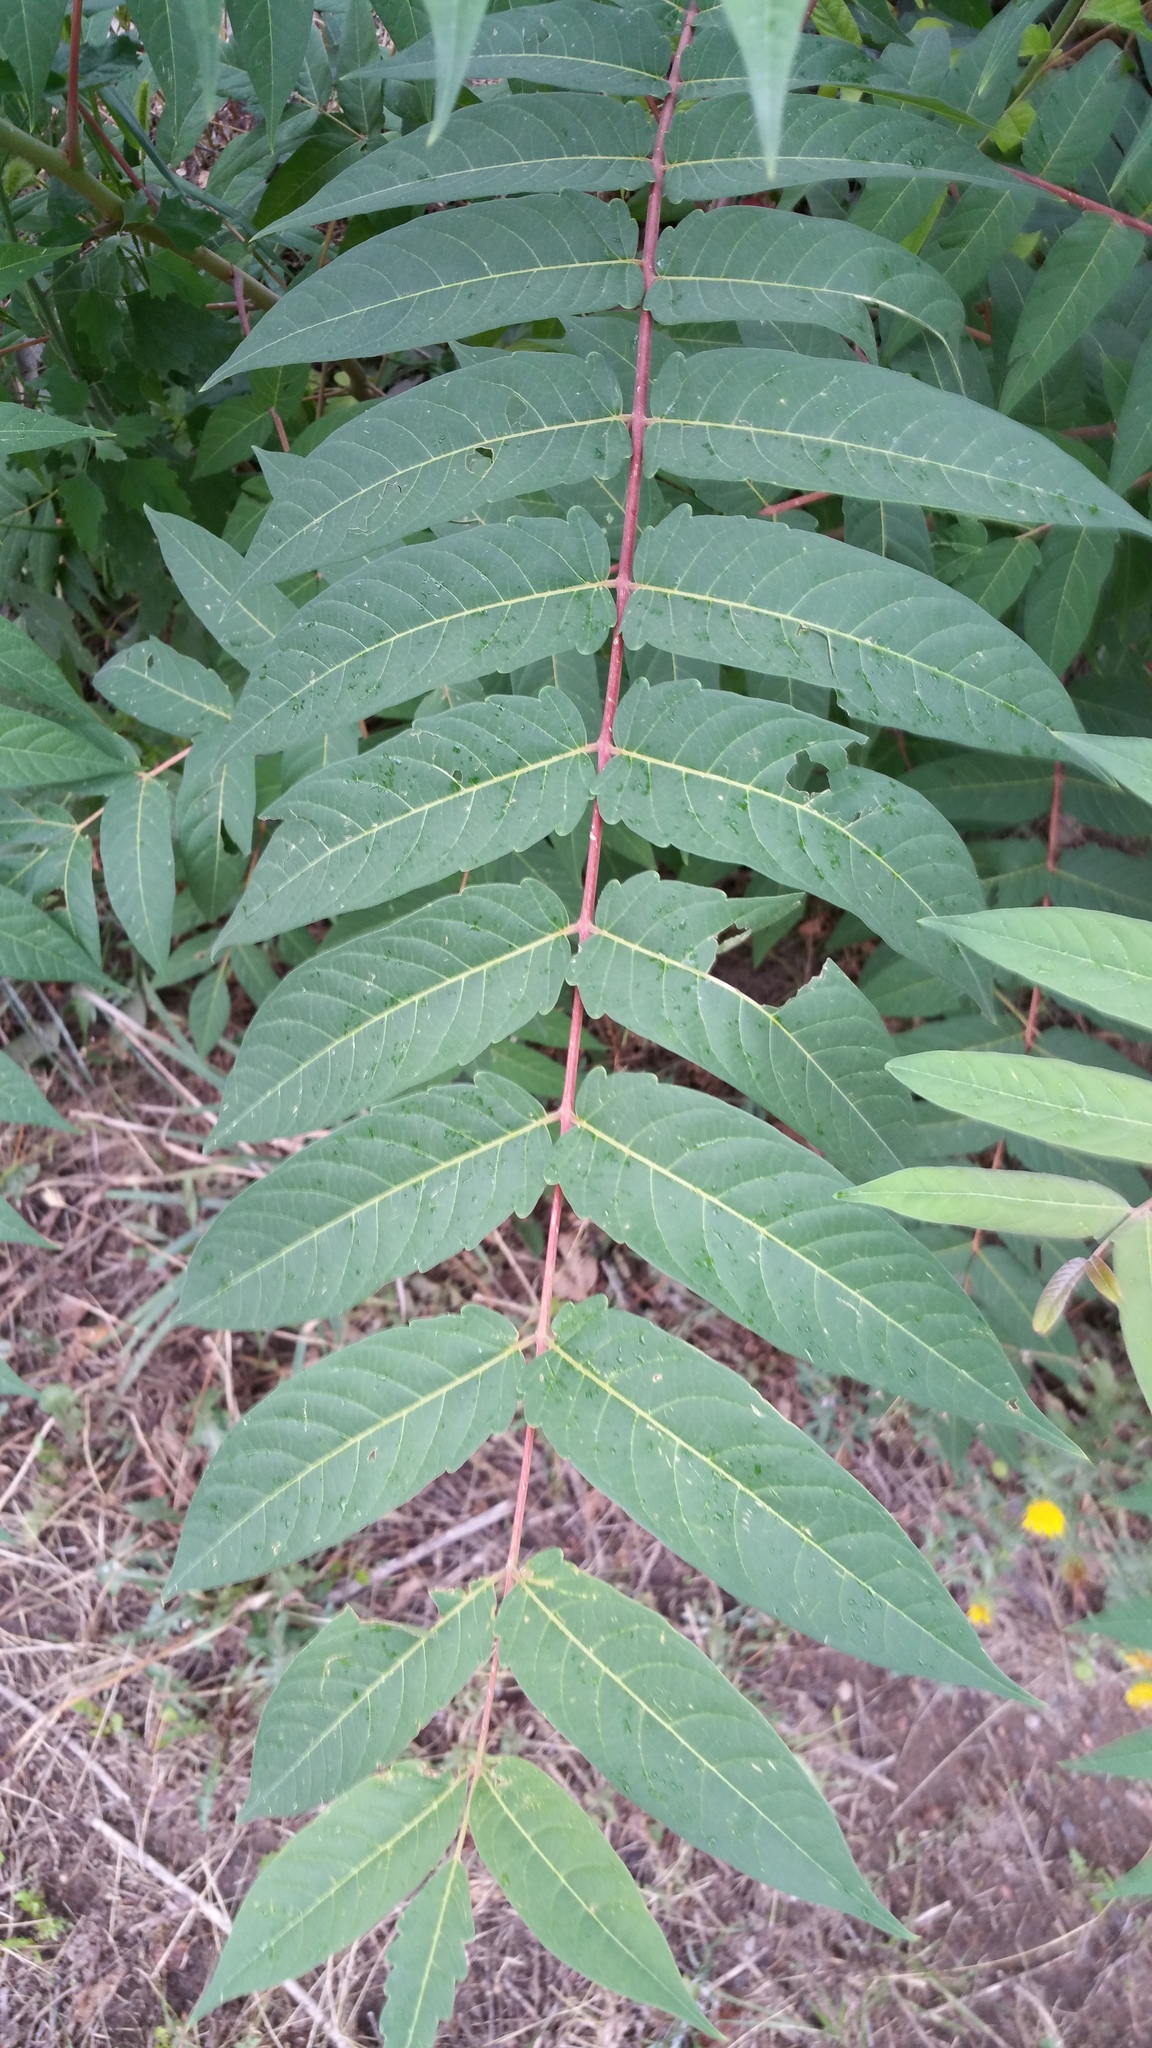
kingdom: Plantae
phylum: Tracheophyta
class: Magnoliopsida
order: Sapindales
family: Simaroubaceae
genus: Ailanthus
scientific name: Ailanthus altissima
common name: Tree-of-heaven
